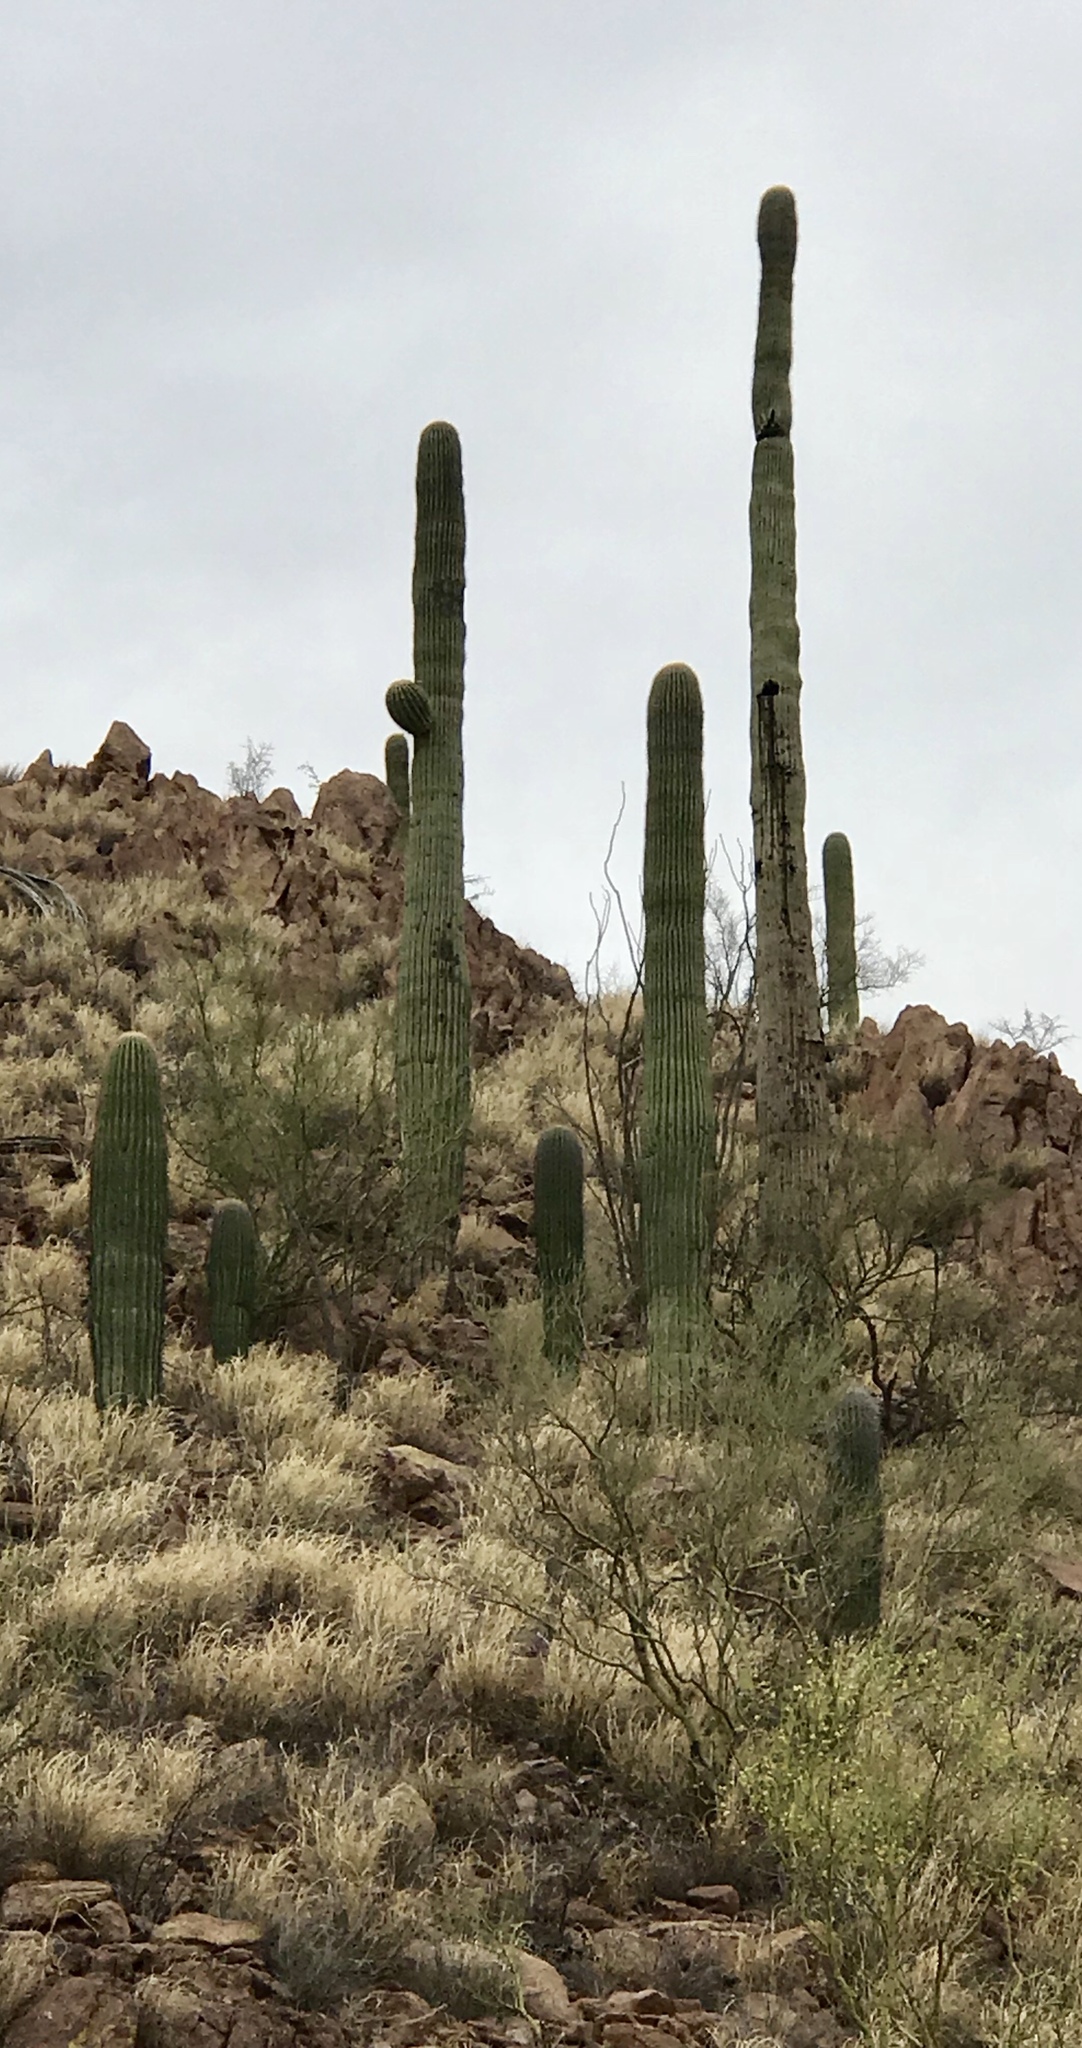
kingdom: Plantae
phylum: Tracheophyta
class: Magnoliopsida
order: Caryophyllales
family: Cactaceae
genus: Carnegiea
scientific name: Carnegiea gigantea
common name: Saguaro
